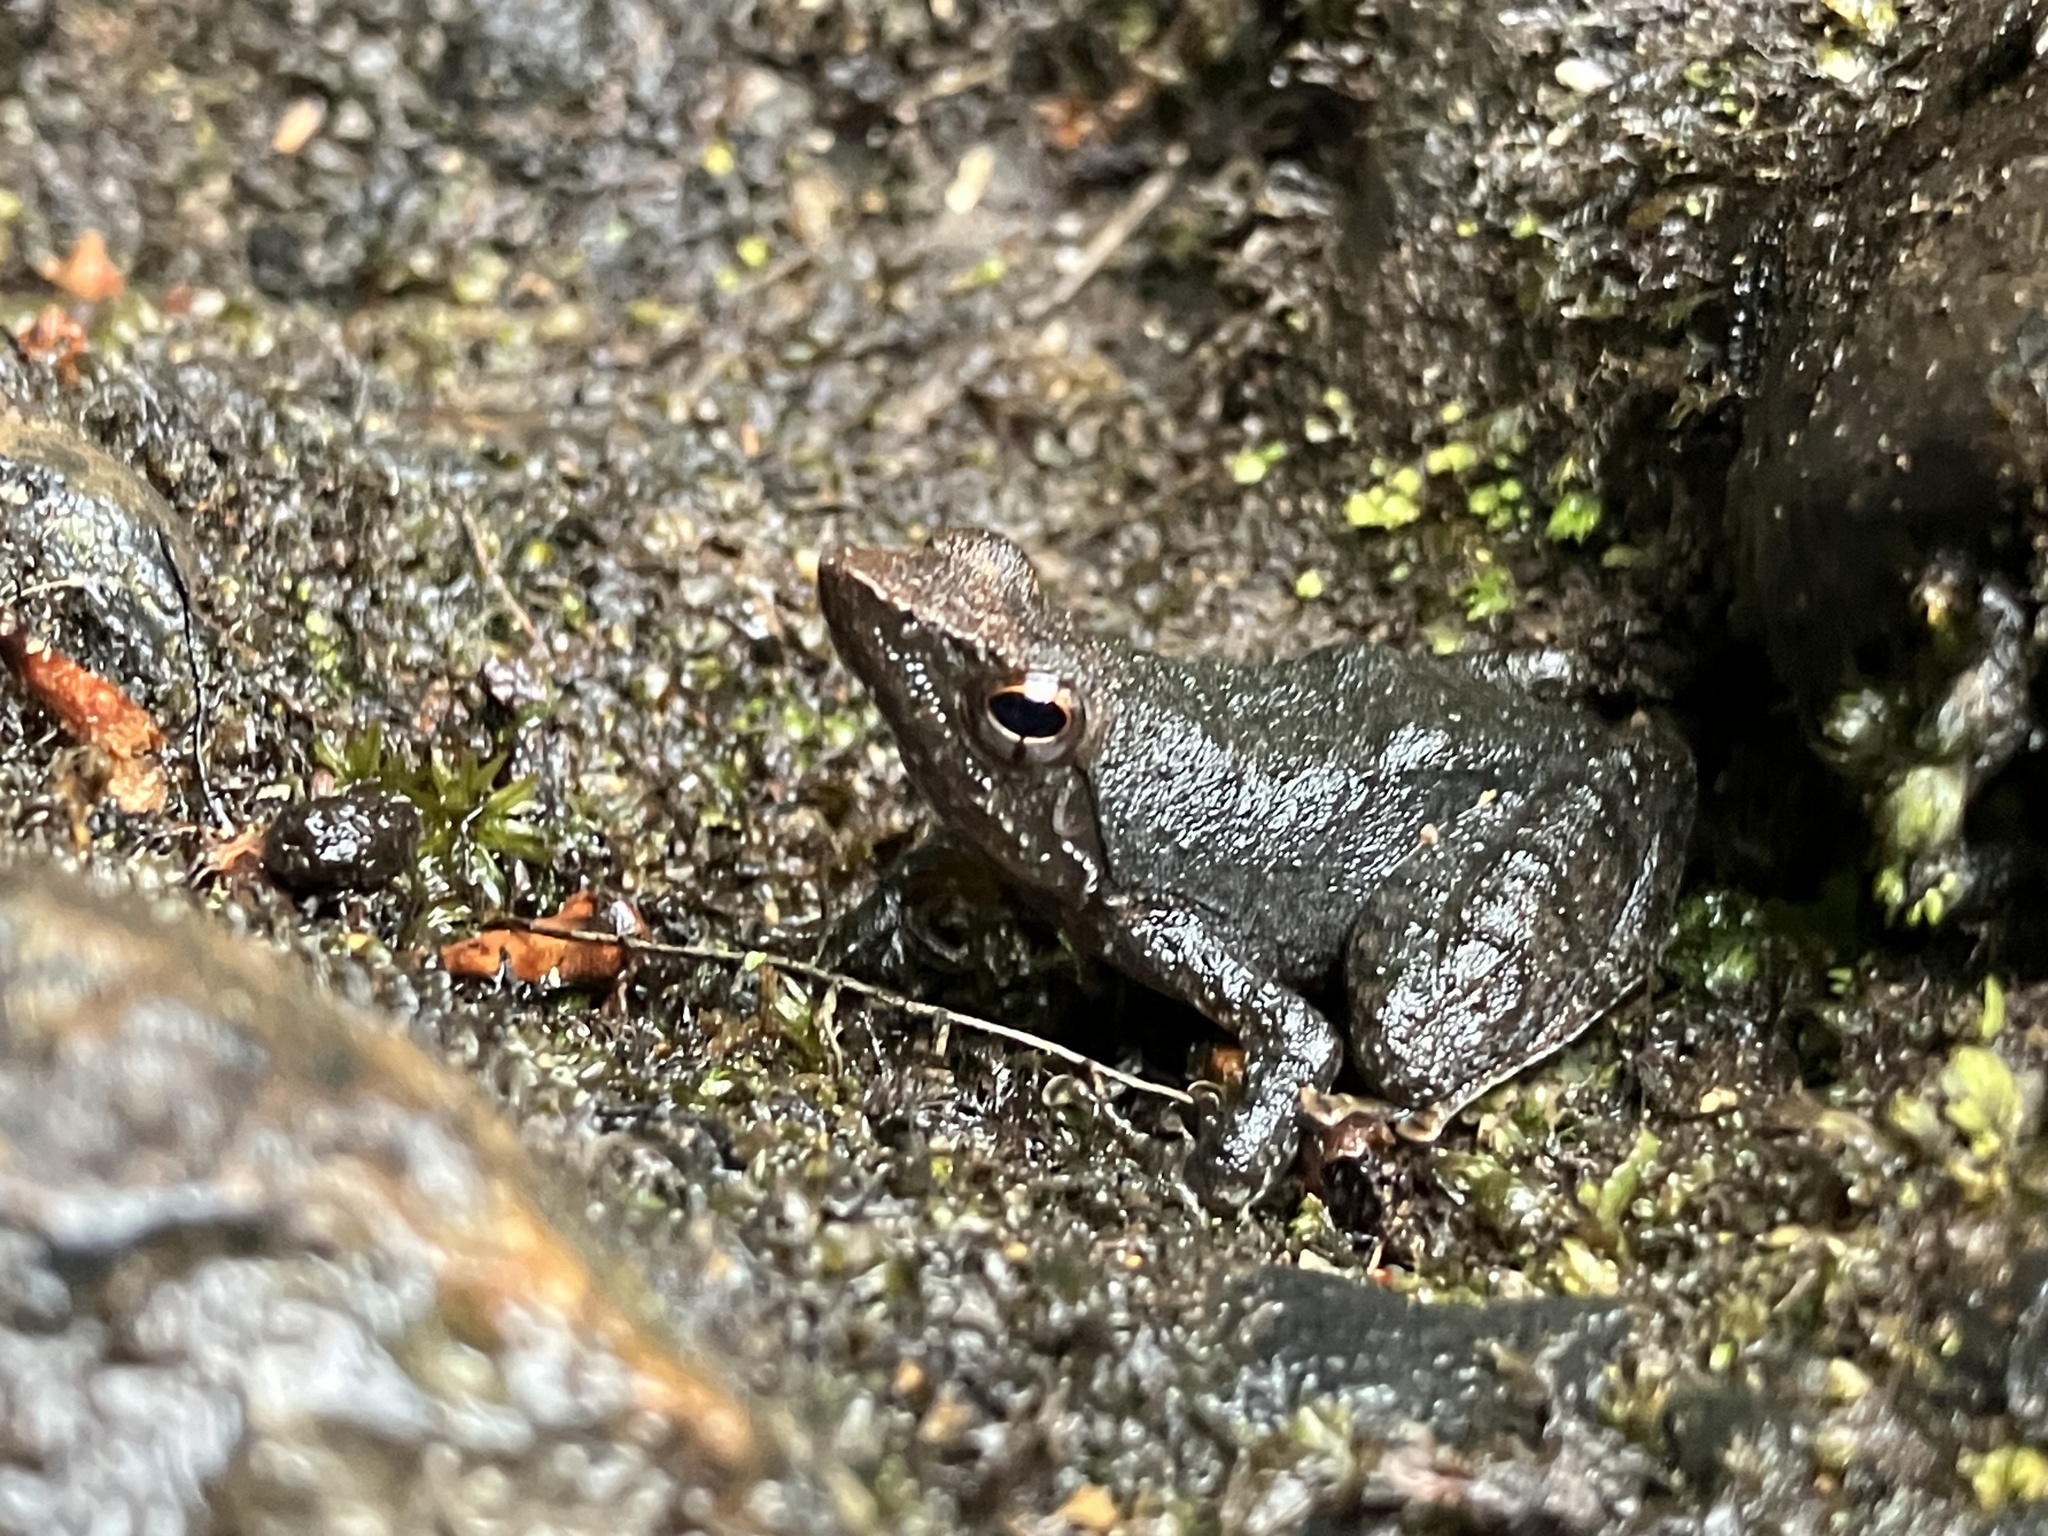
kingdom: Animalia
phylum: Chordata
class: Amphibia
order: Anura
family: Micrixalidae
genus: Micrixalus
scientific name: Micrixalus kottigeharensis
